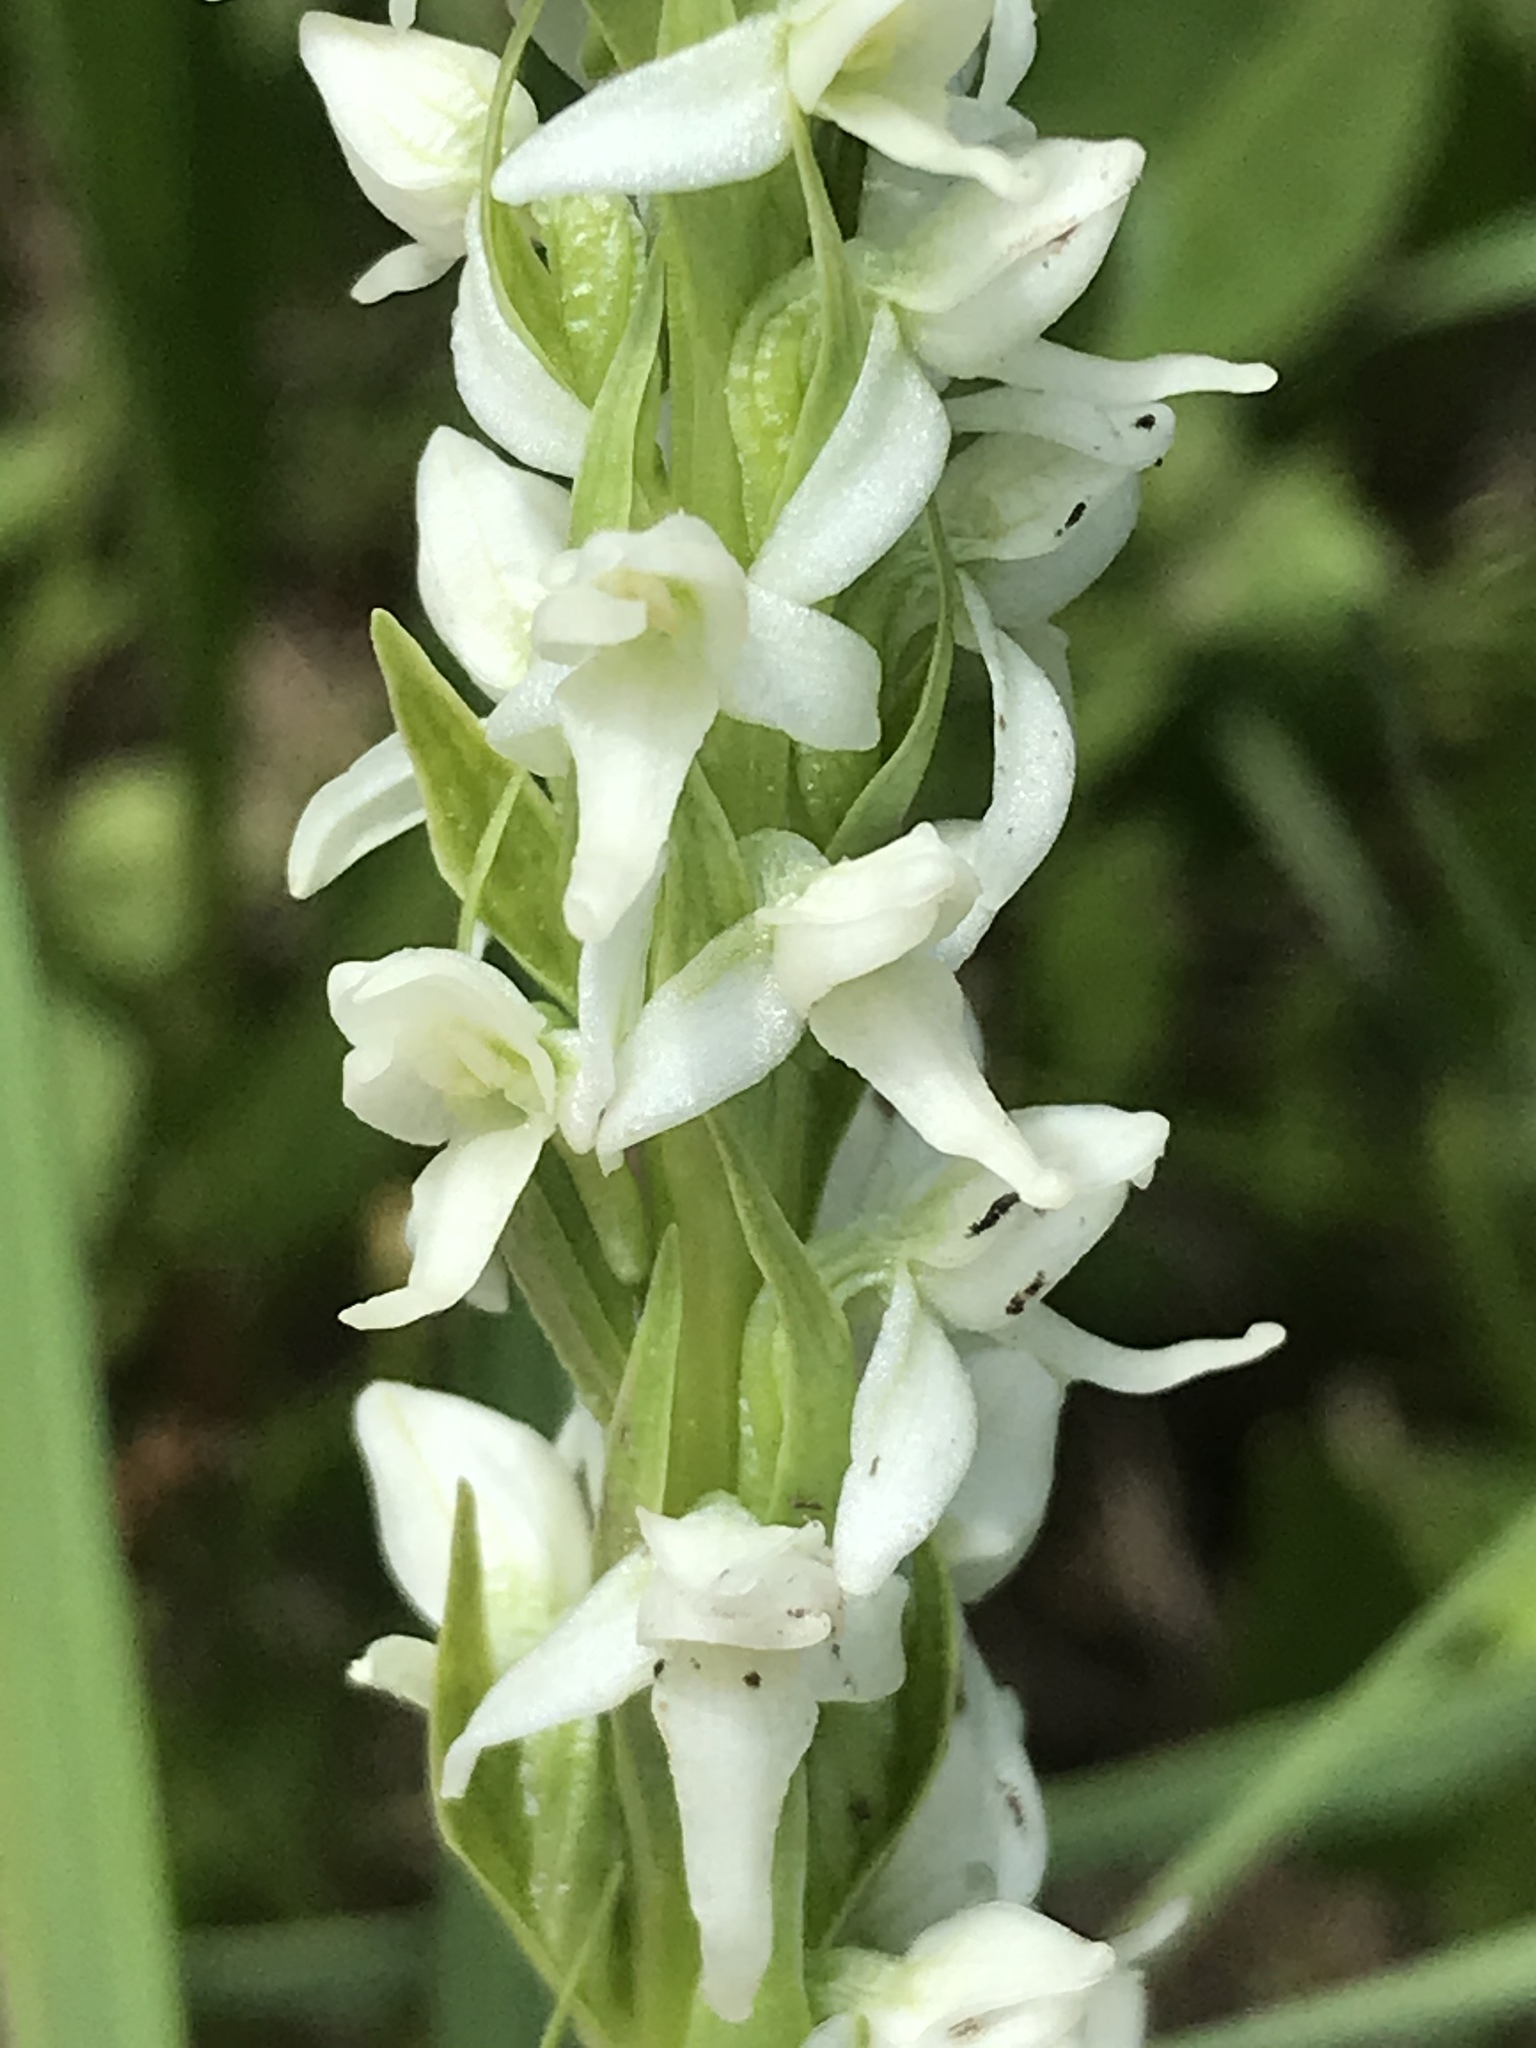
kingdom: Plantae
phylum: Tracheophyta
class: Liliopsida
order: Asparagales
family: Orchidaceae
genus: Platanthera
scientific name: Platanthera dilatata
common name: Bog candles
